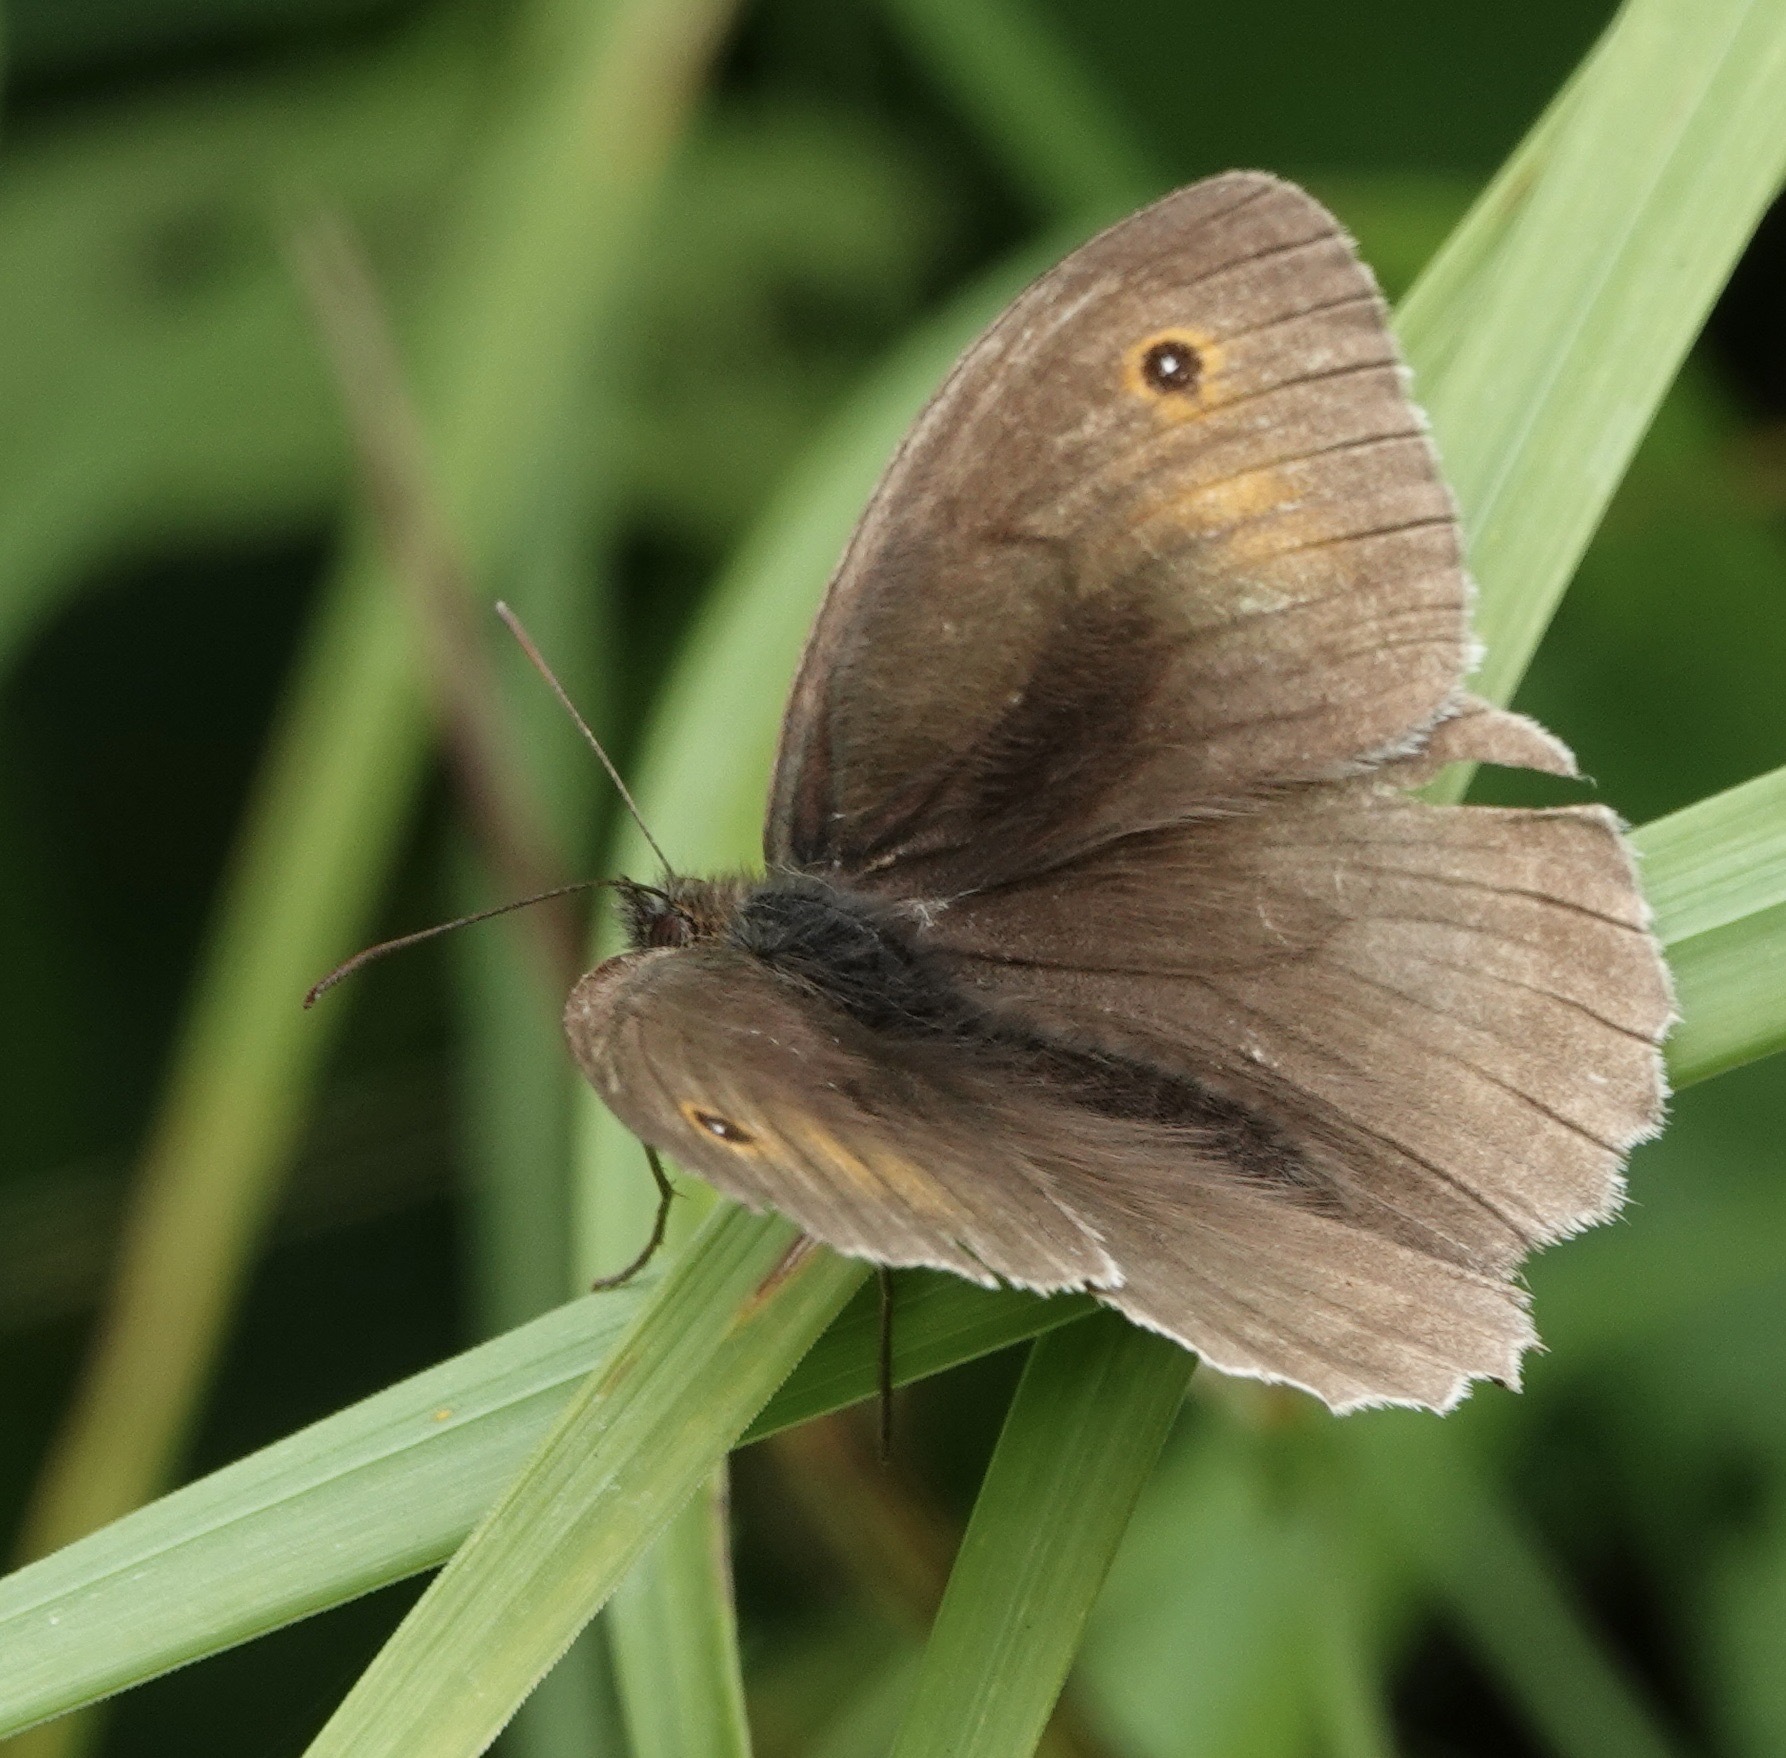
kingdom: Animalia
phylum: Arthropoda
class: Insecta
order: Lepidoptera
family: Nymphalidae
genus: Maniola
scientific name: Maniola jurtina
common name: Meadow brown
